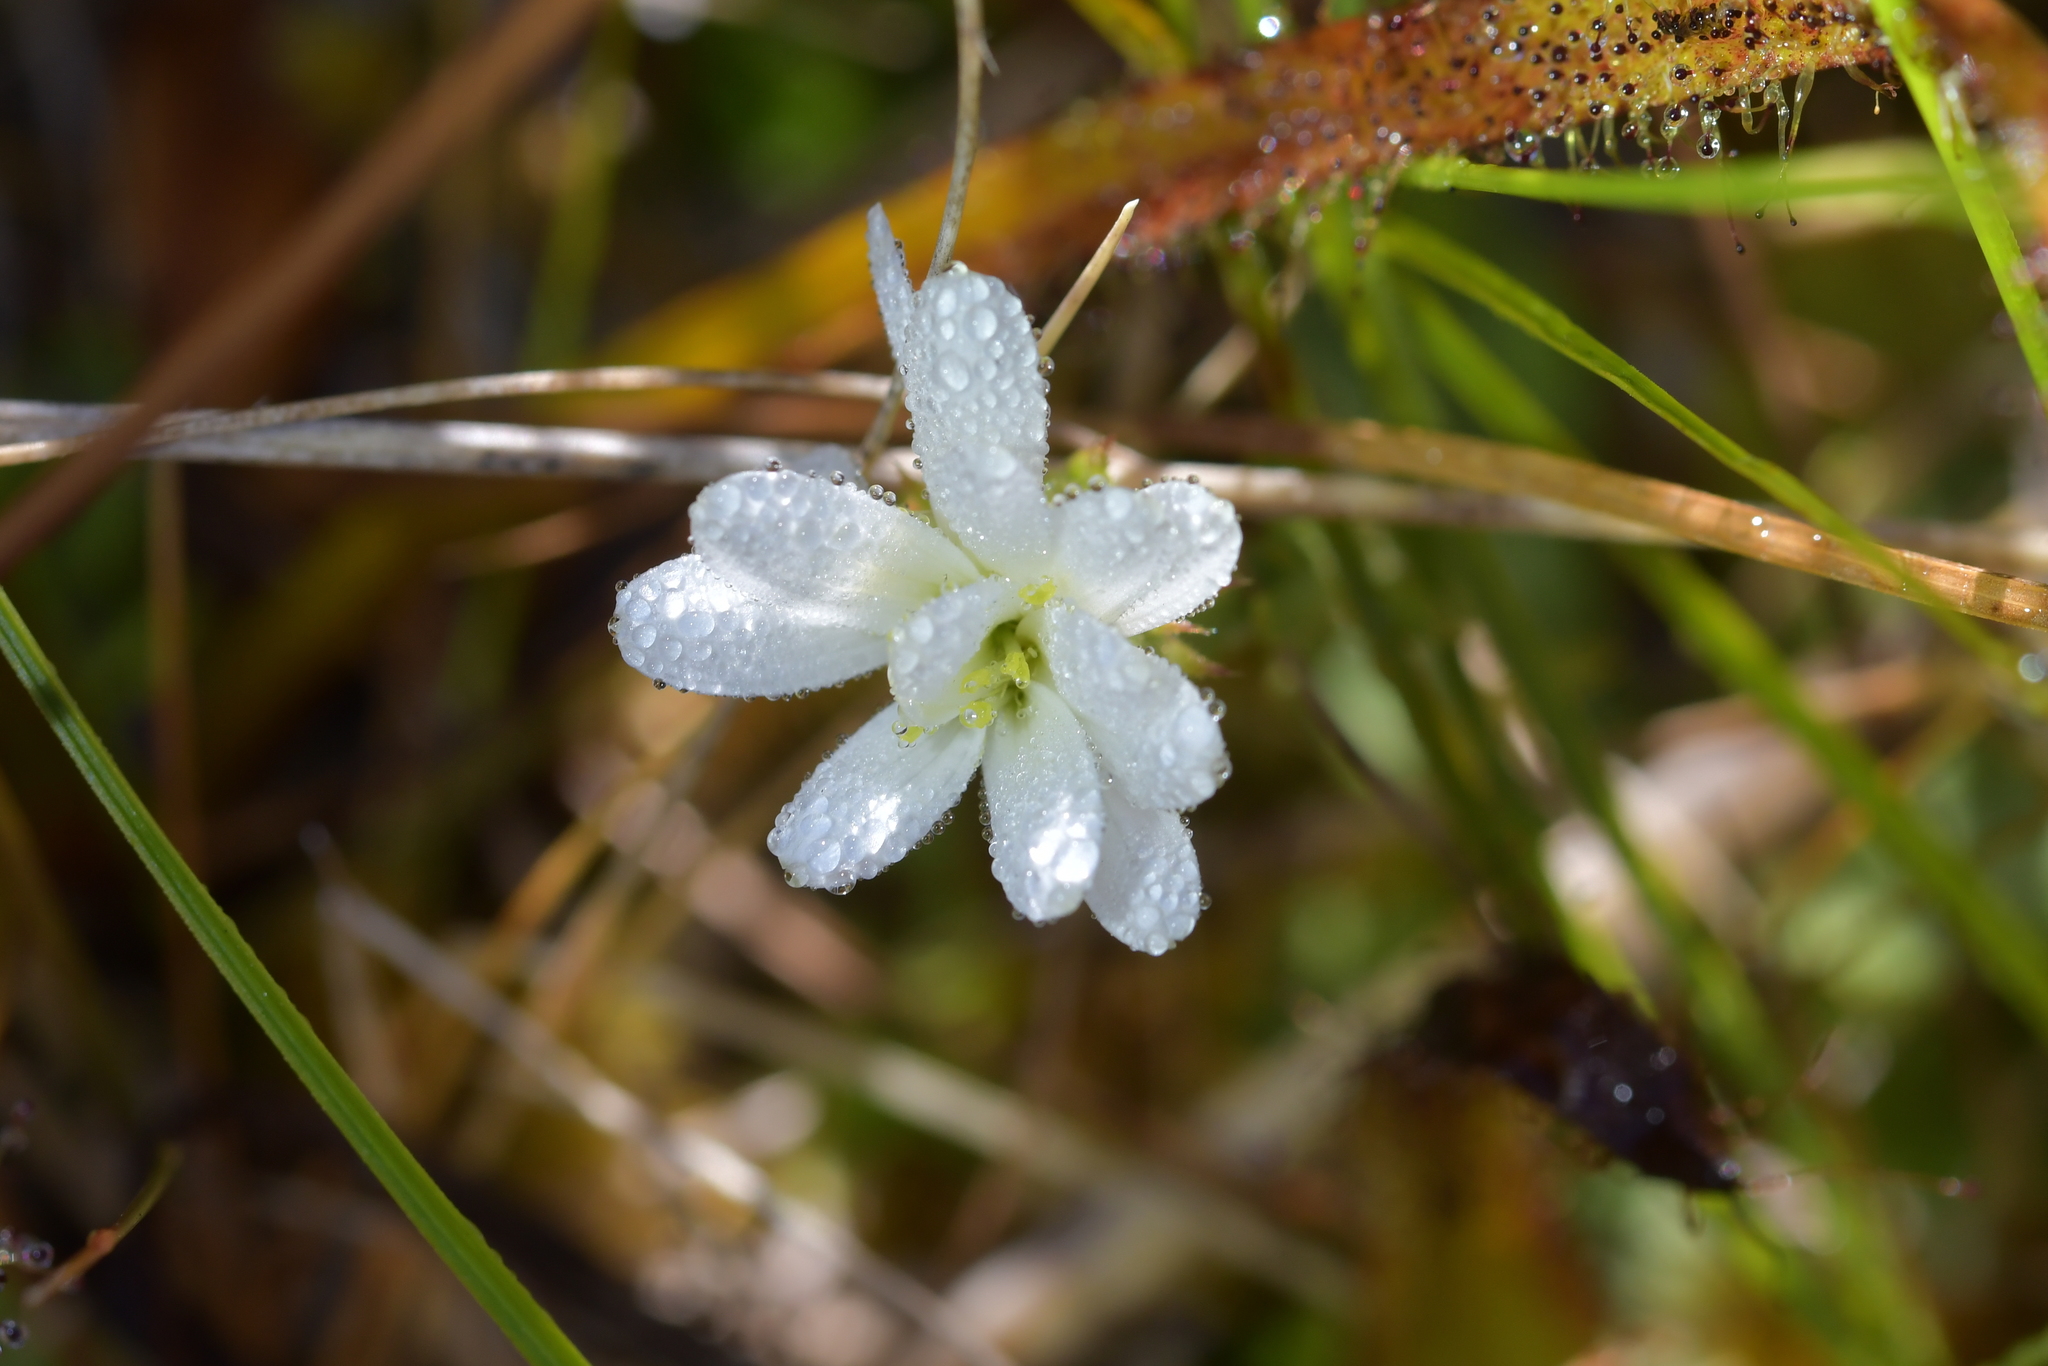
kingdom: Plantae
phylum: Tracheophyta
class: Magnoliopsida
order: Asterales
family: Asteraceae
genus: Celmisia
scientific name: Celmisia glandulosa
